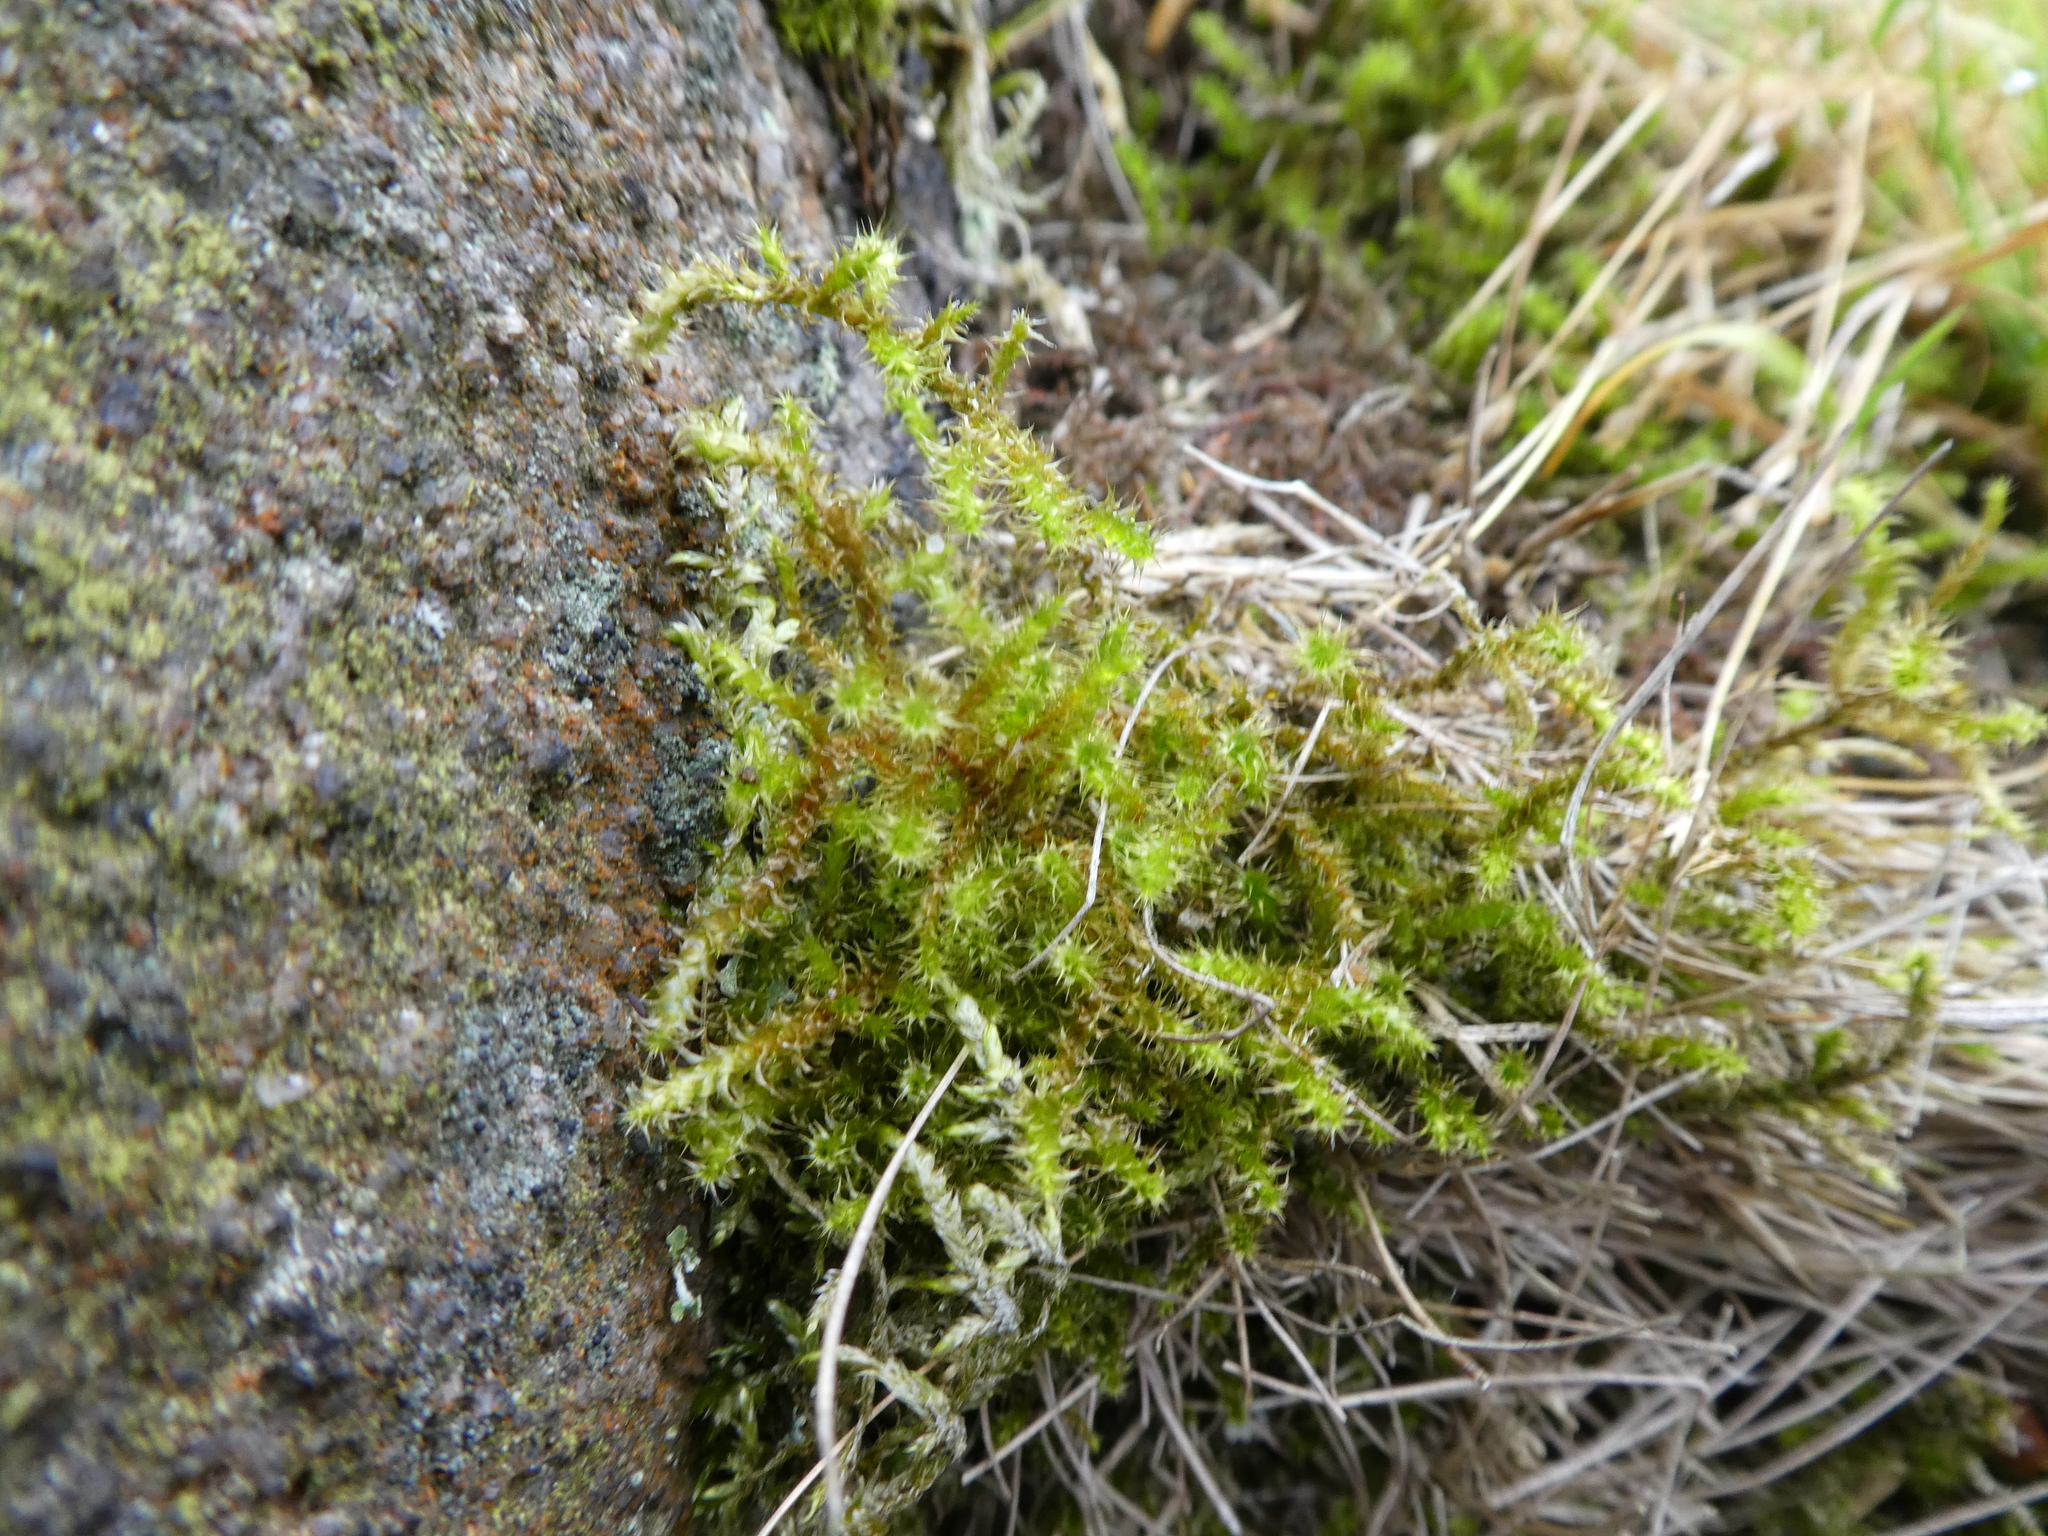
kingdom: Plantae
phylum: Bryophyta
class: Bryopsida
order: Hypnales
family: Hylocomiaceae
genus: Rhytidiadelphus
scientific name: Rhytidiadelphus squarrosus
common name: Springy turf-moss
